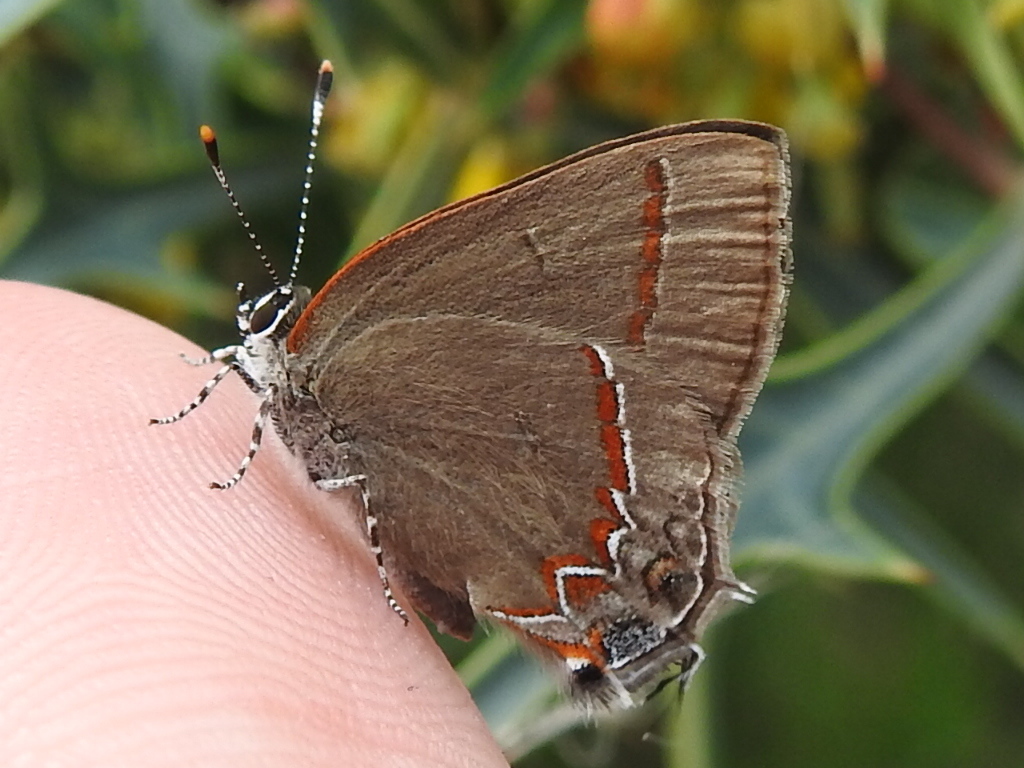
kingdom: Animalia
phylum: Arthropoda
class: Insecta
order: Lepidoptera
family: Lycaenidae
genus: Calycopis
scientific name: Calycopis cecrops
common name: Red-banded hairstreak
